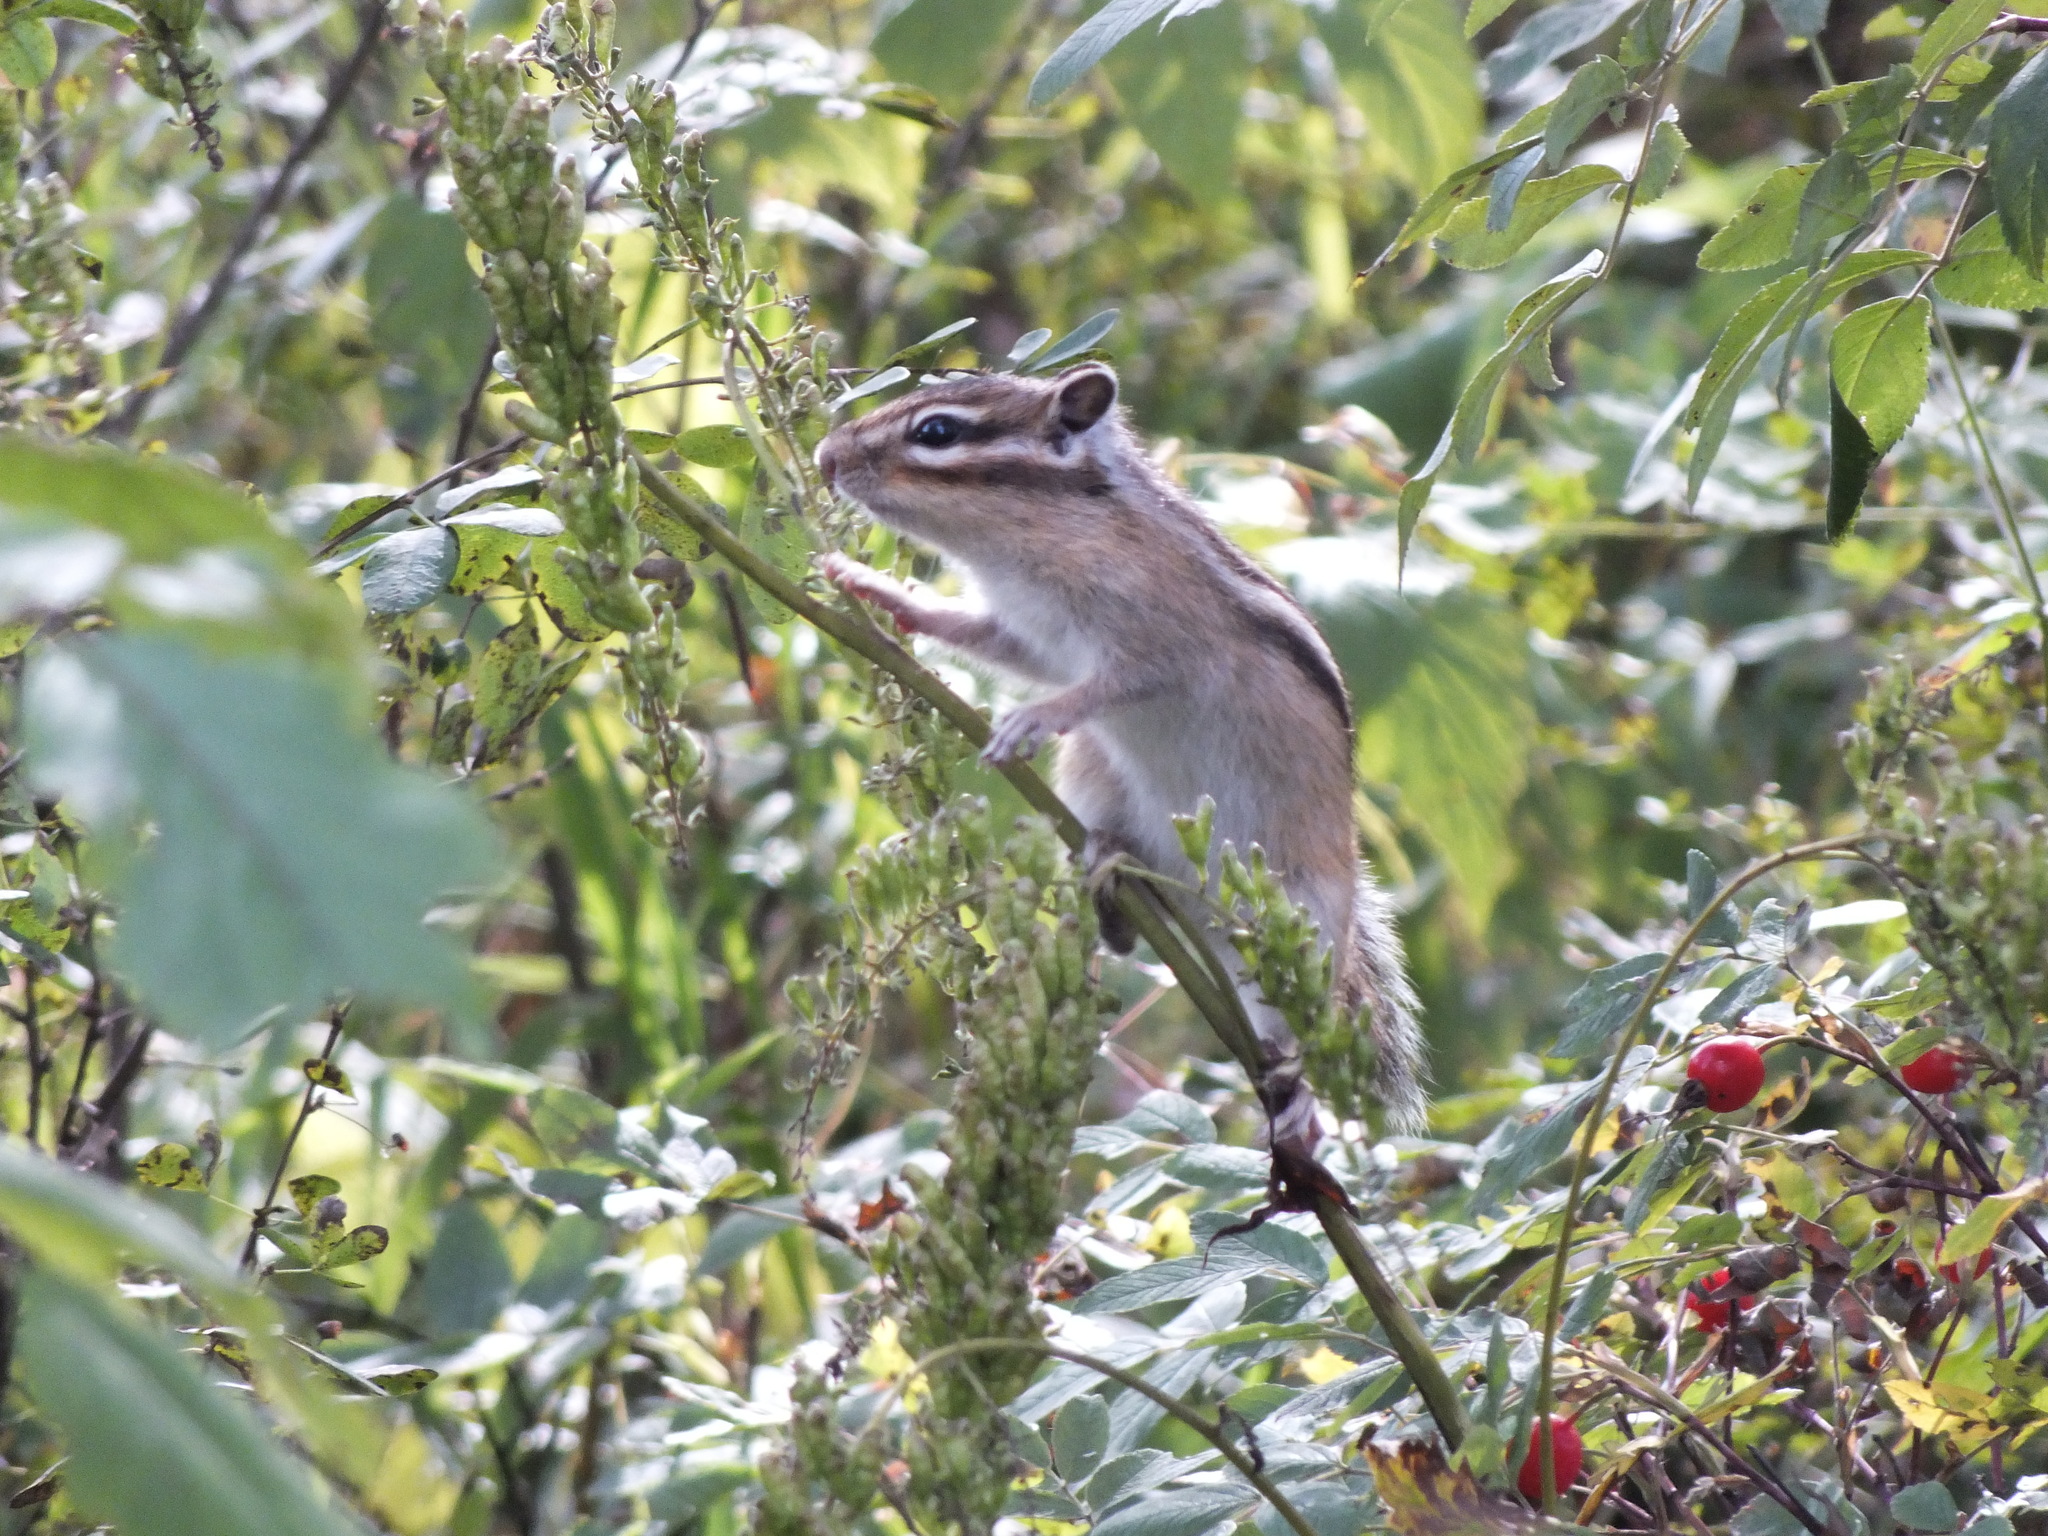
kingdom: Animalia
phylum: Chordata
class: Mammalia
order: Rodentia
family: Sciuridae
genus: Tamias
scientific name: Tamias sibiricus
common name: Siberian chipmunk
